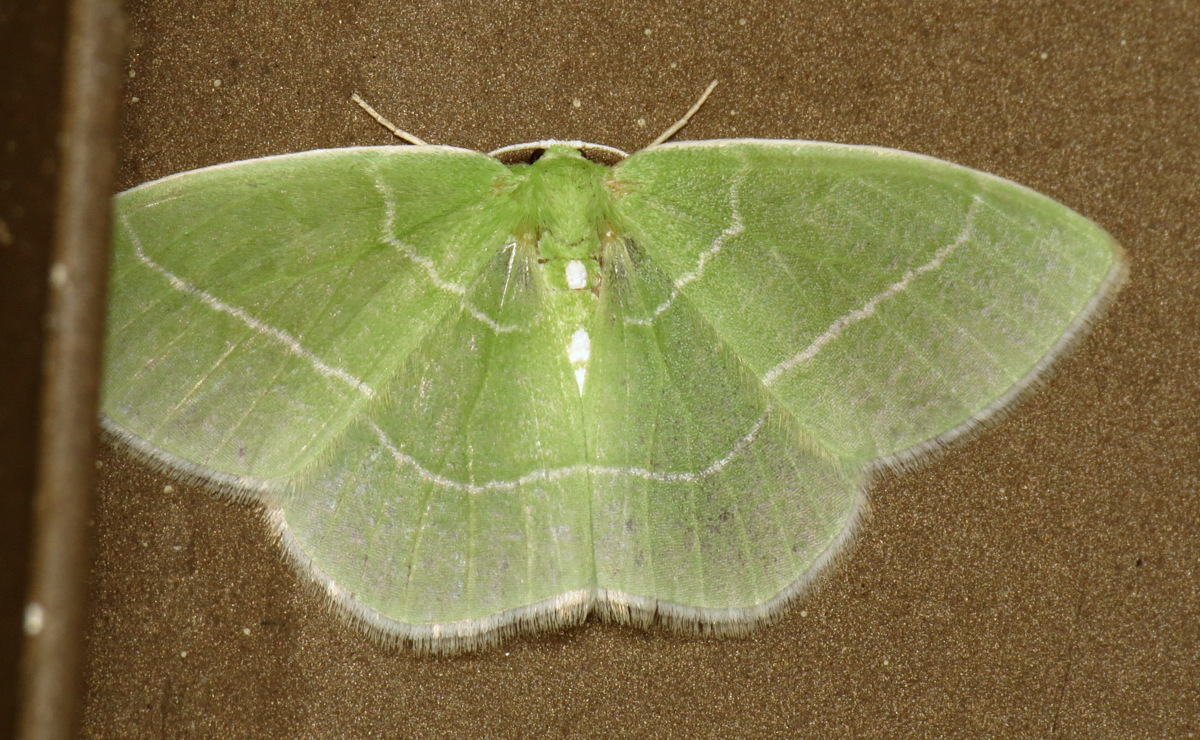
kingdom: Animalia
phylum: Arthropoda
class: Insecta
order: Lepidoptera
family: Geometridae
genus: Nemoria
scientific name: Nemoria mimosaria
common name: White-fringed emerald
